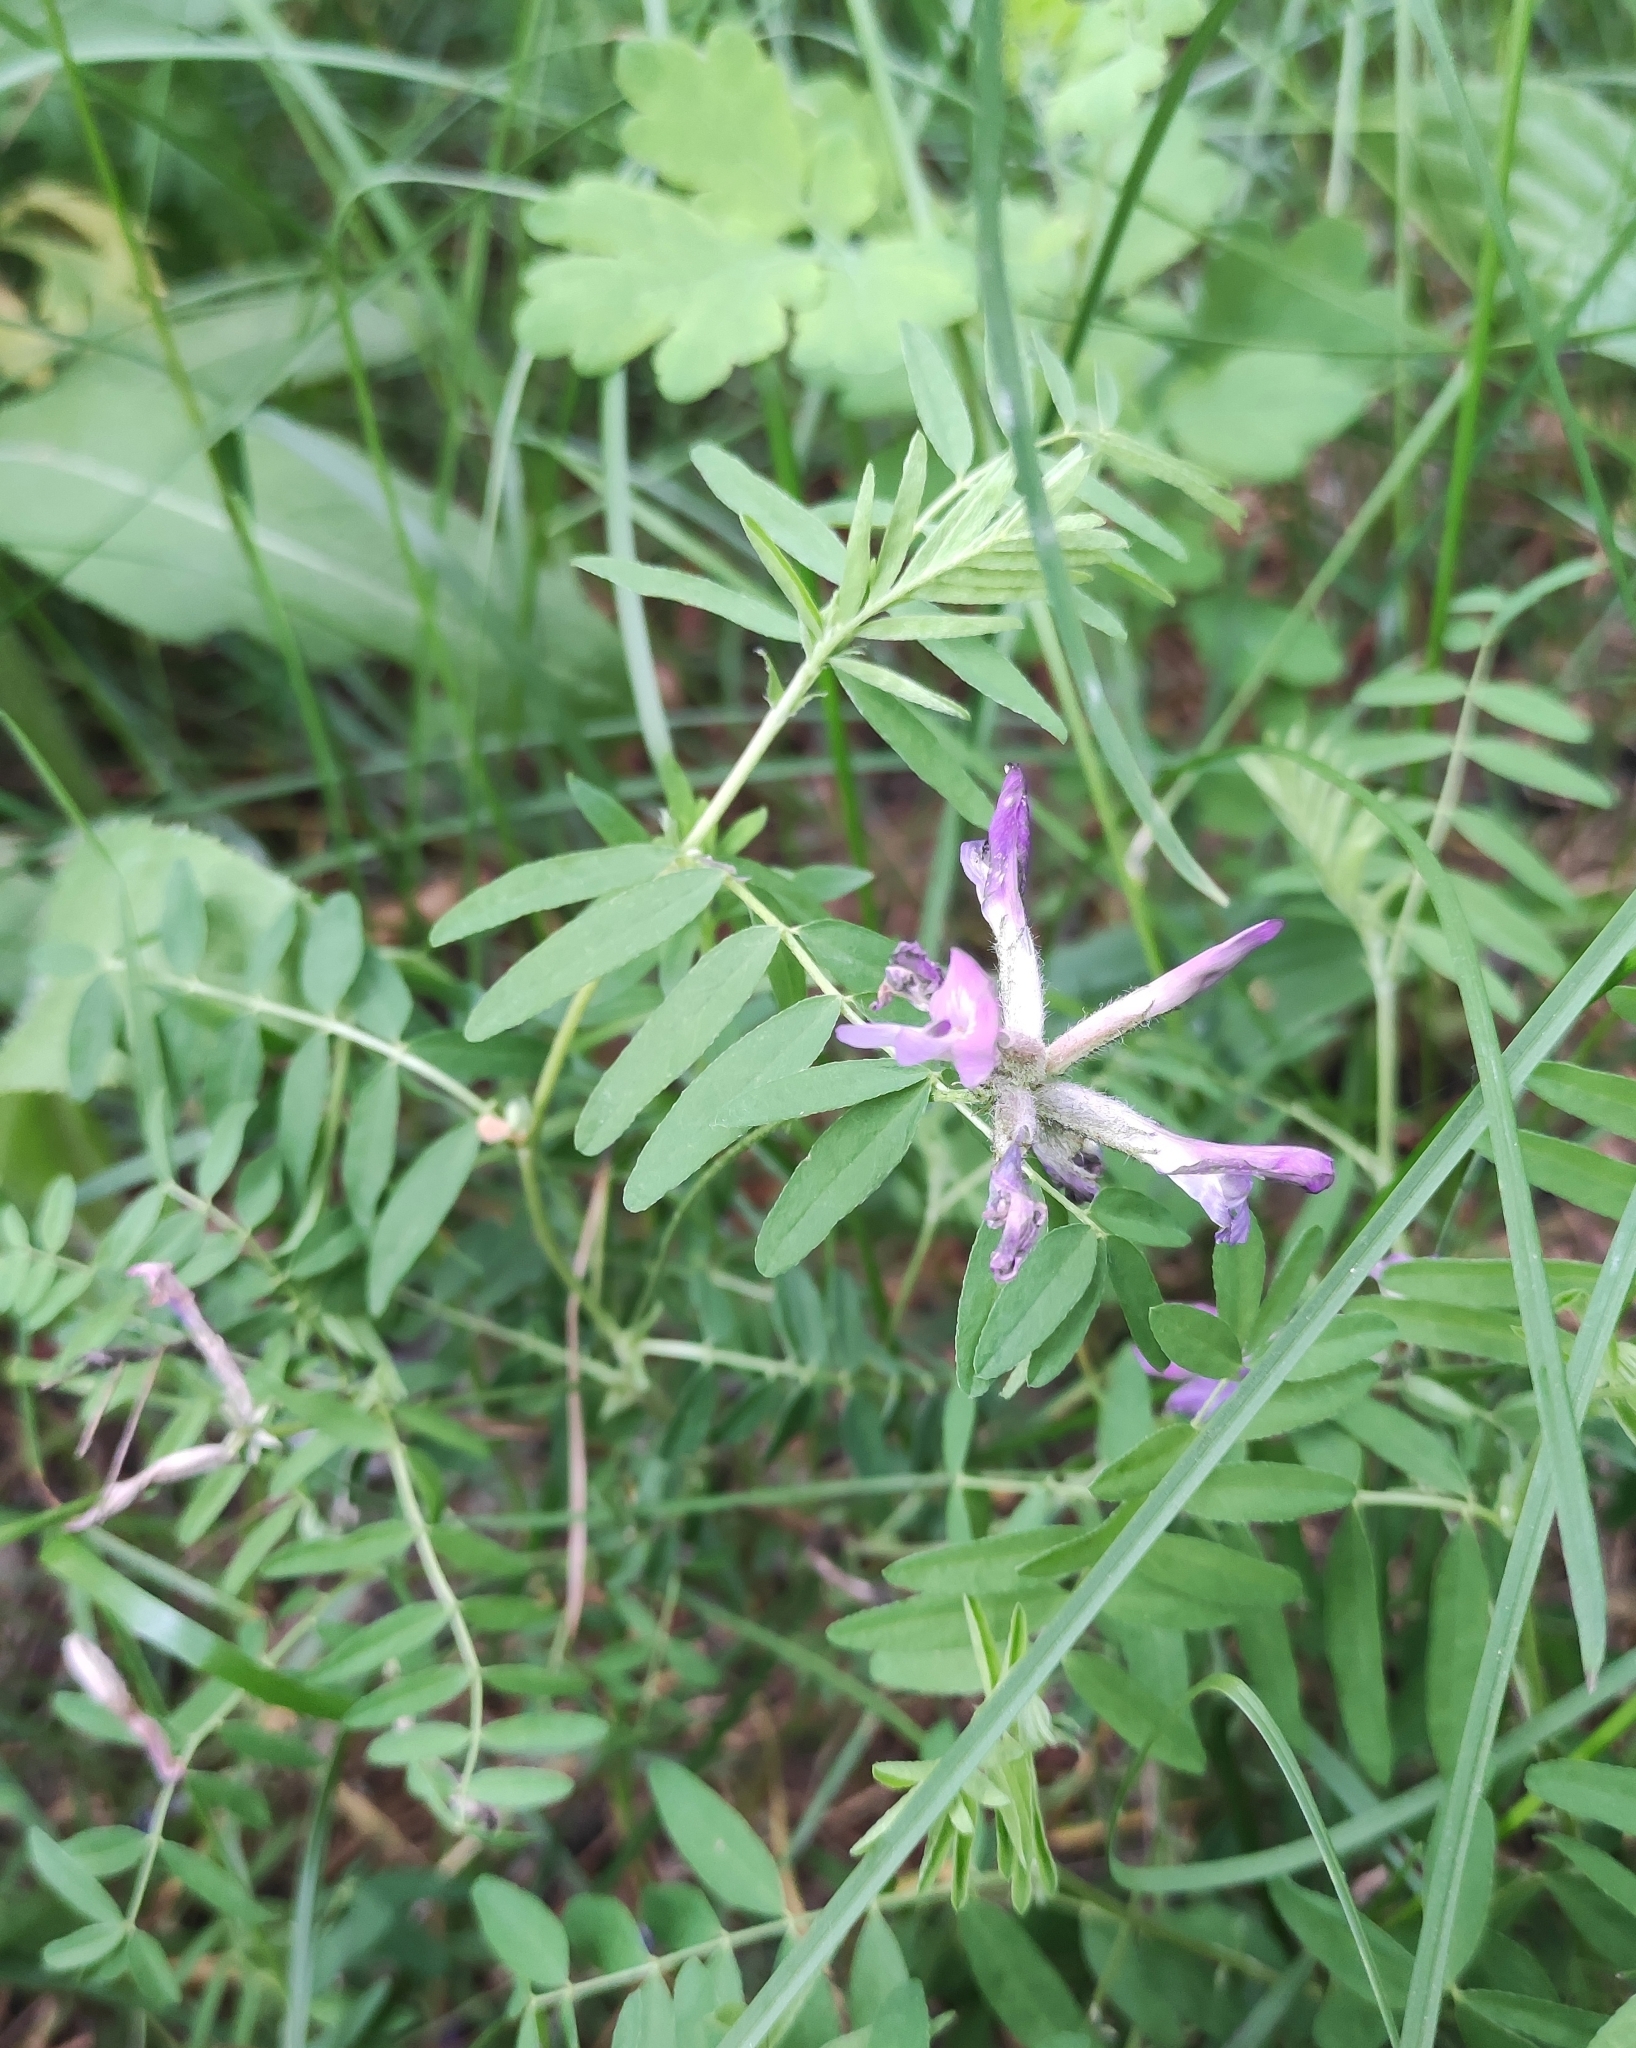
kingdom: Plantae
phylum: Tracheophyta
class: Magnoliopsida
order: Fabales
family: Fabaceae
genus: Astragalus
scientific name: Astragalus syriacus
